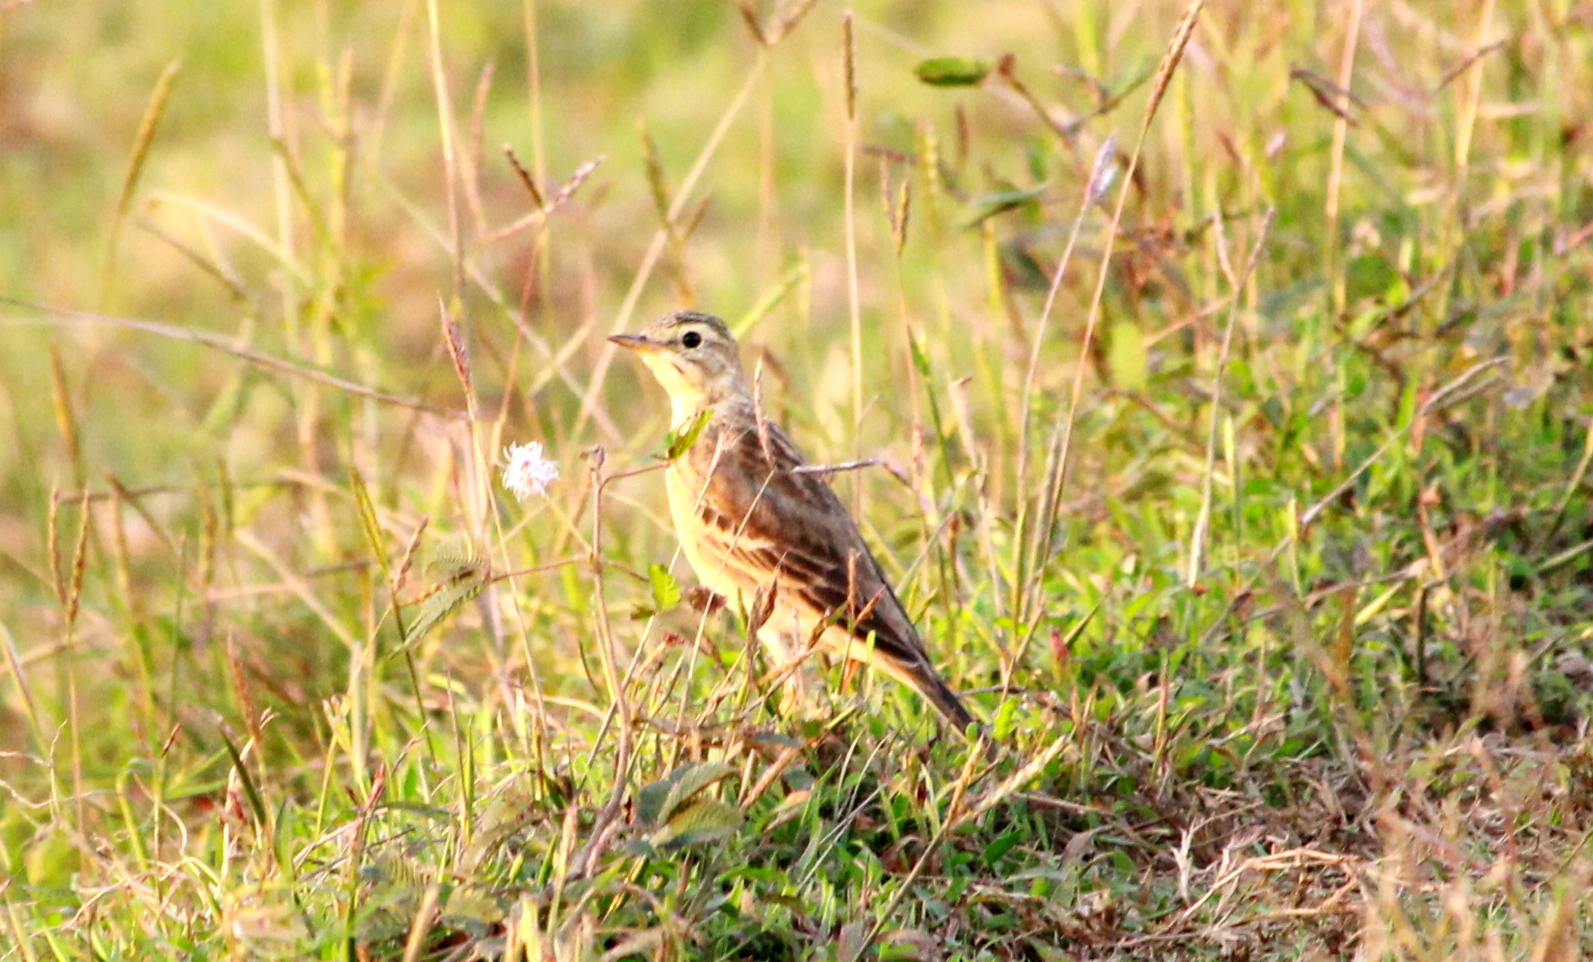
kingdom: Animalia
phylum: Chordata
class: Aves
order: Passeriformes
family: Motacillidae
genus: Anthus
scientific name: Anthus rufulus
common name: Paddyfield pipit
